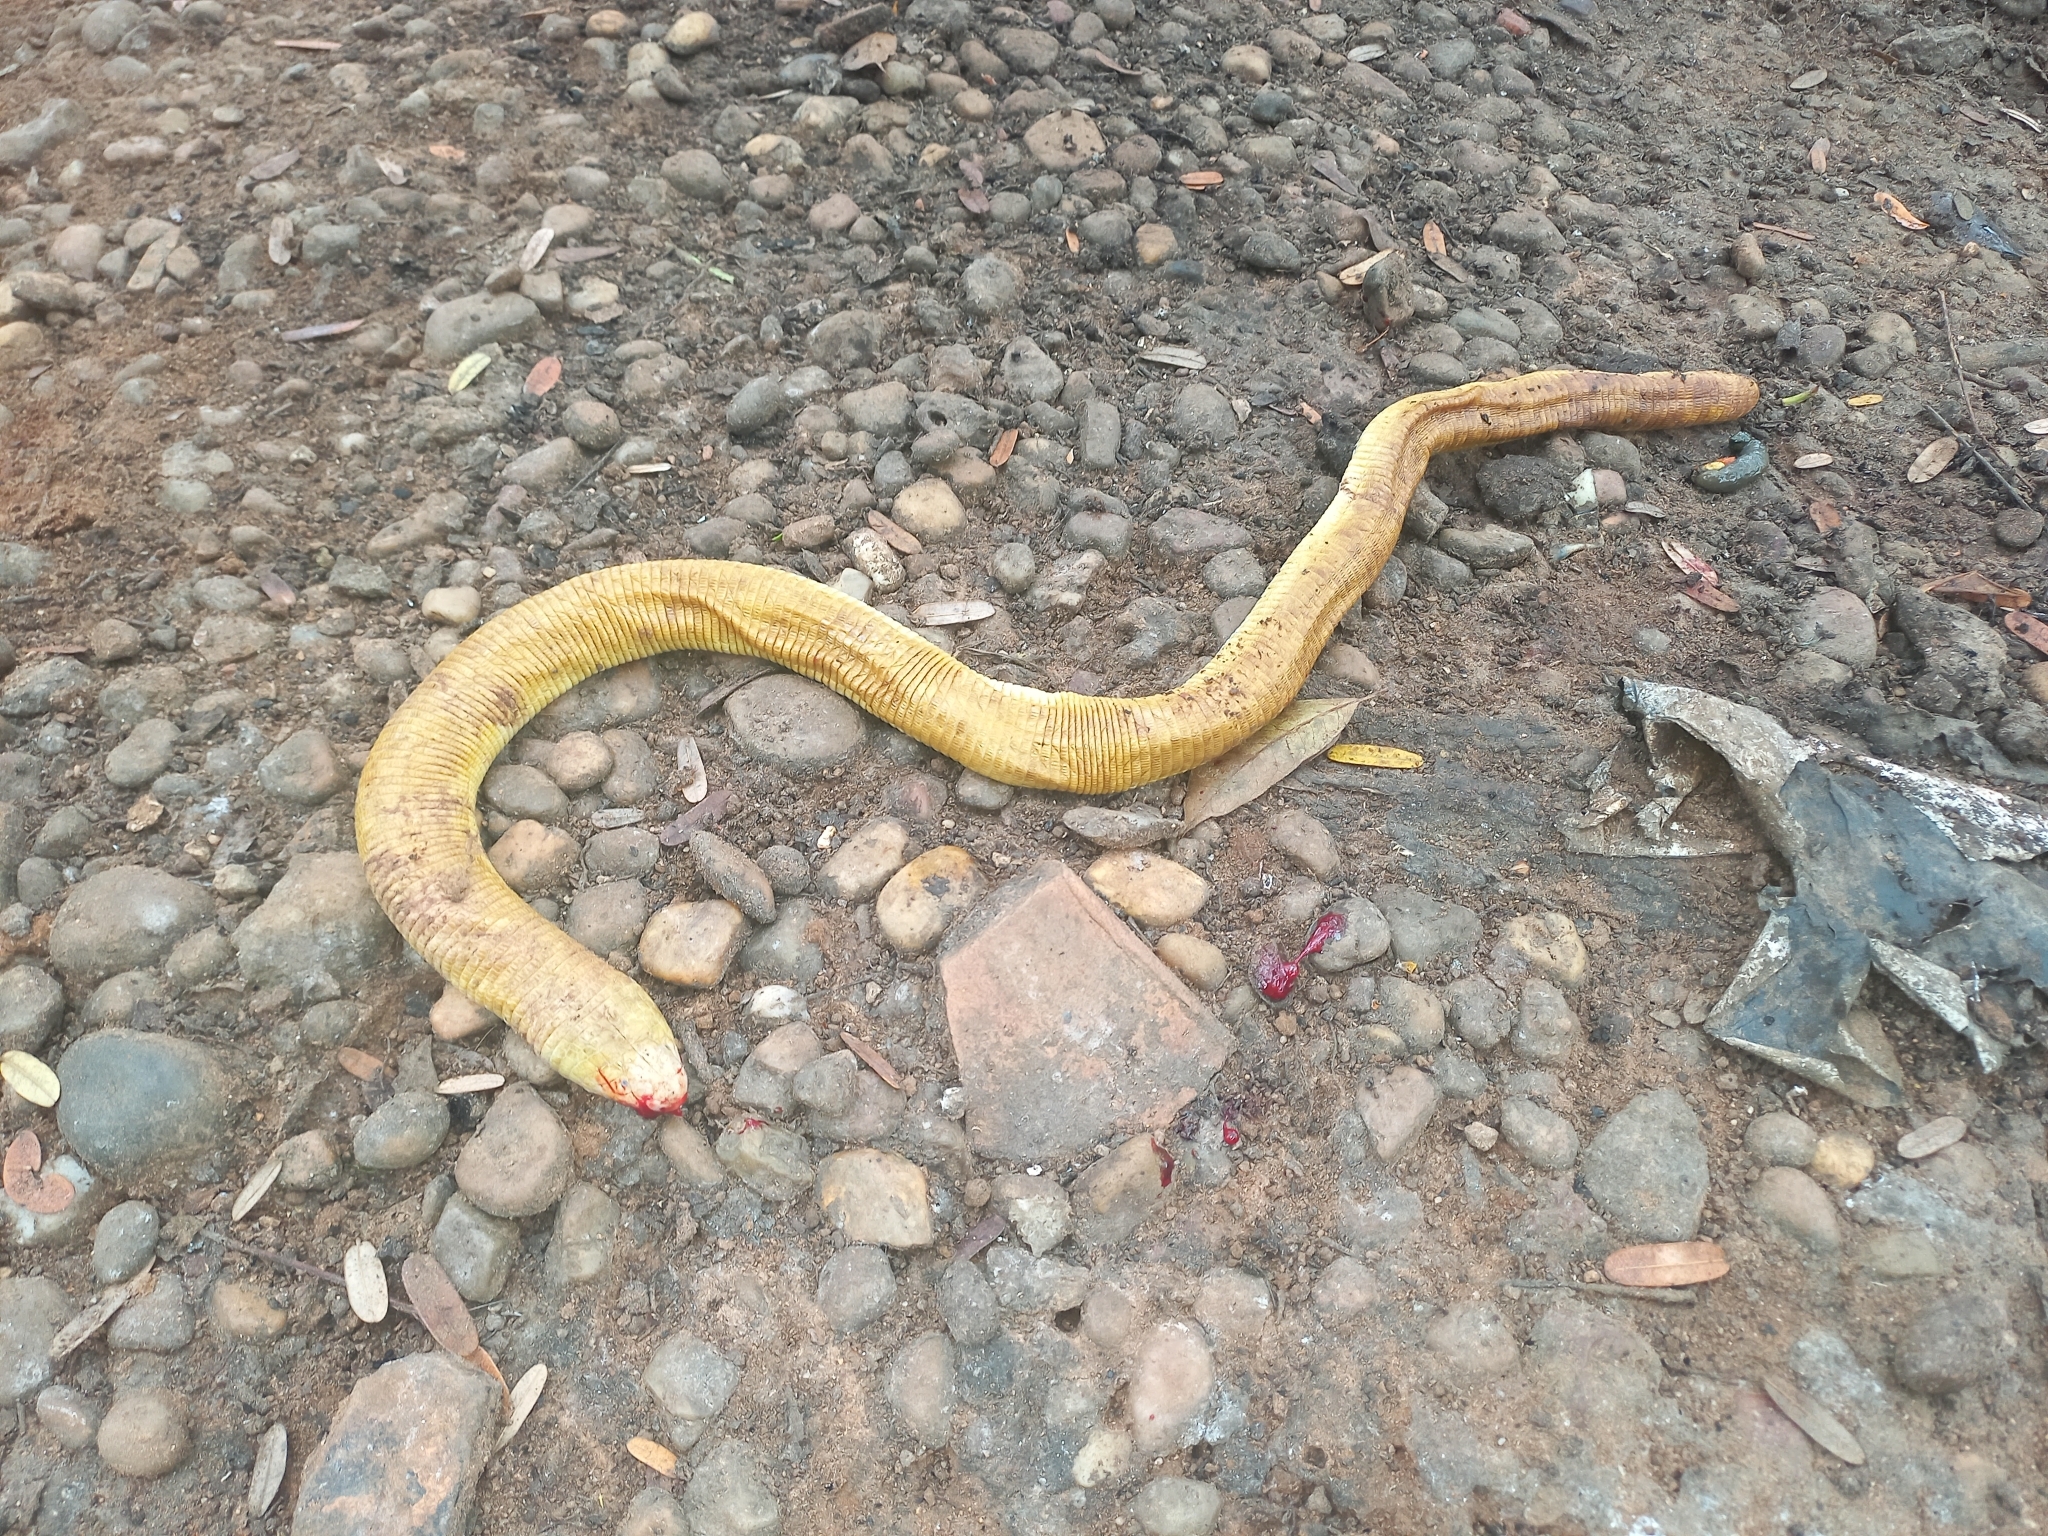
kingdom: Animalia
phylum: Chordata
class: Squamata
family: Amphisbaenidae
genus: Amphisbaena
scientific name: Amphisbaena alba
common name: Red worm lizard
